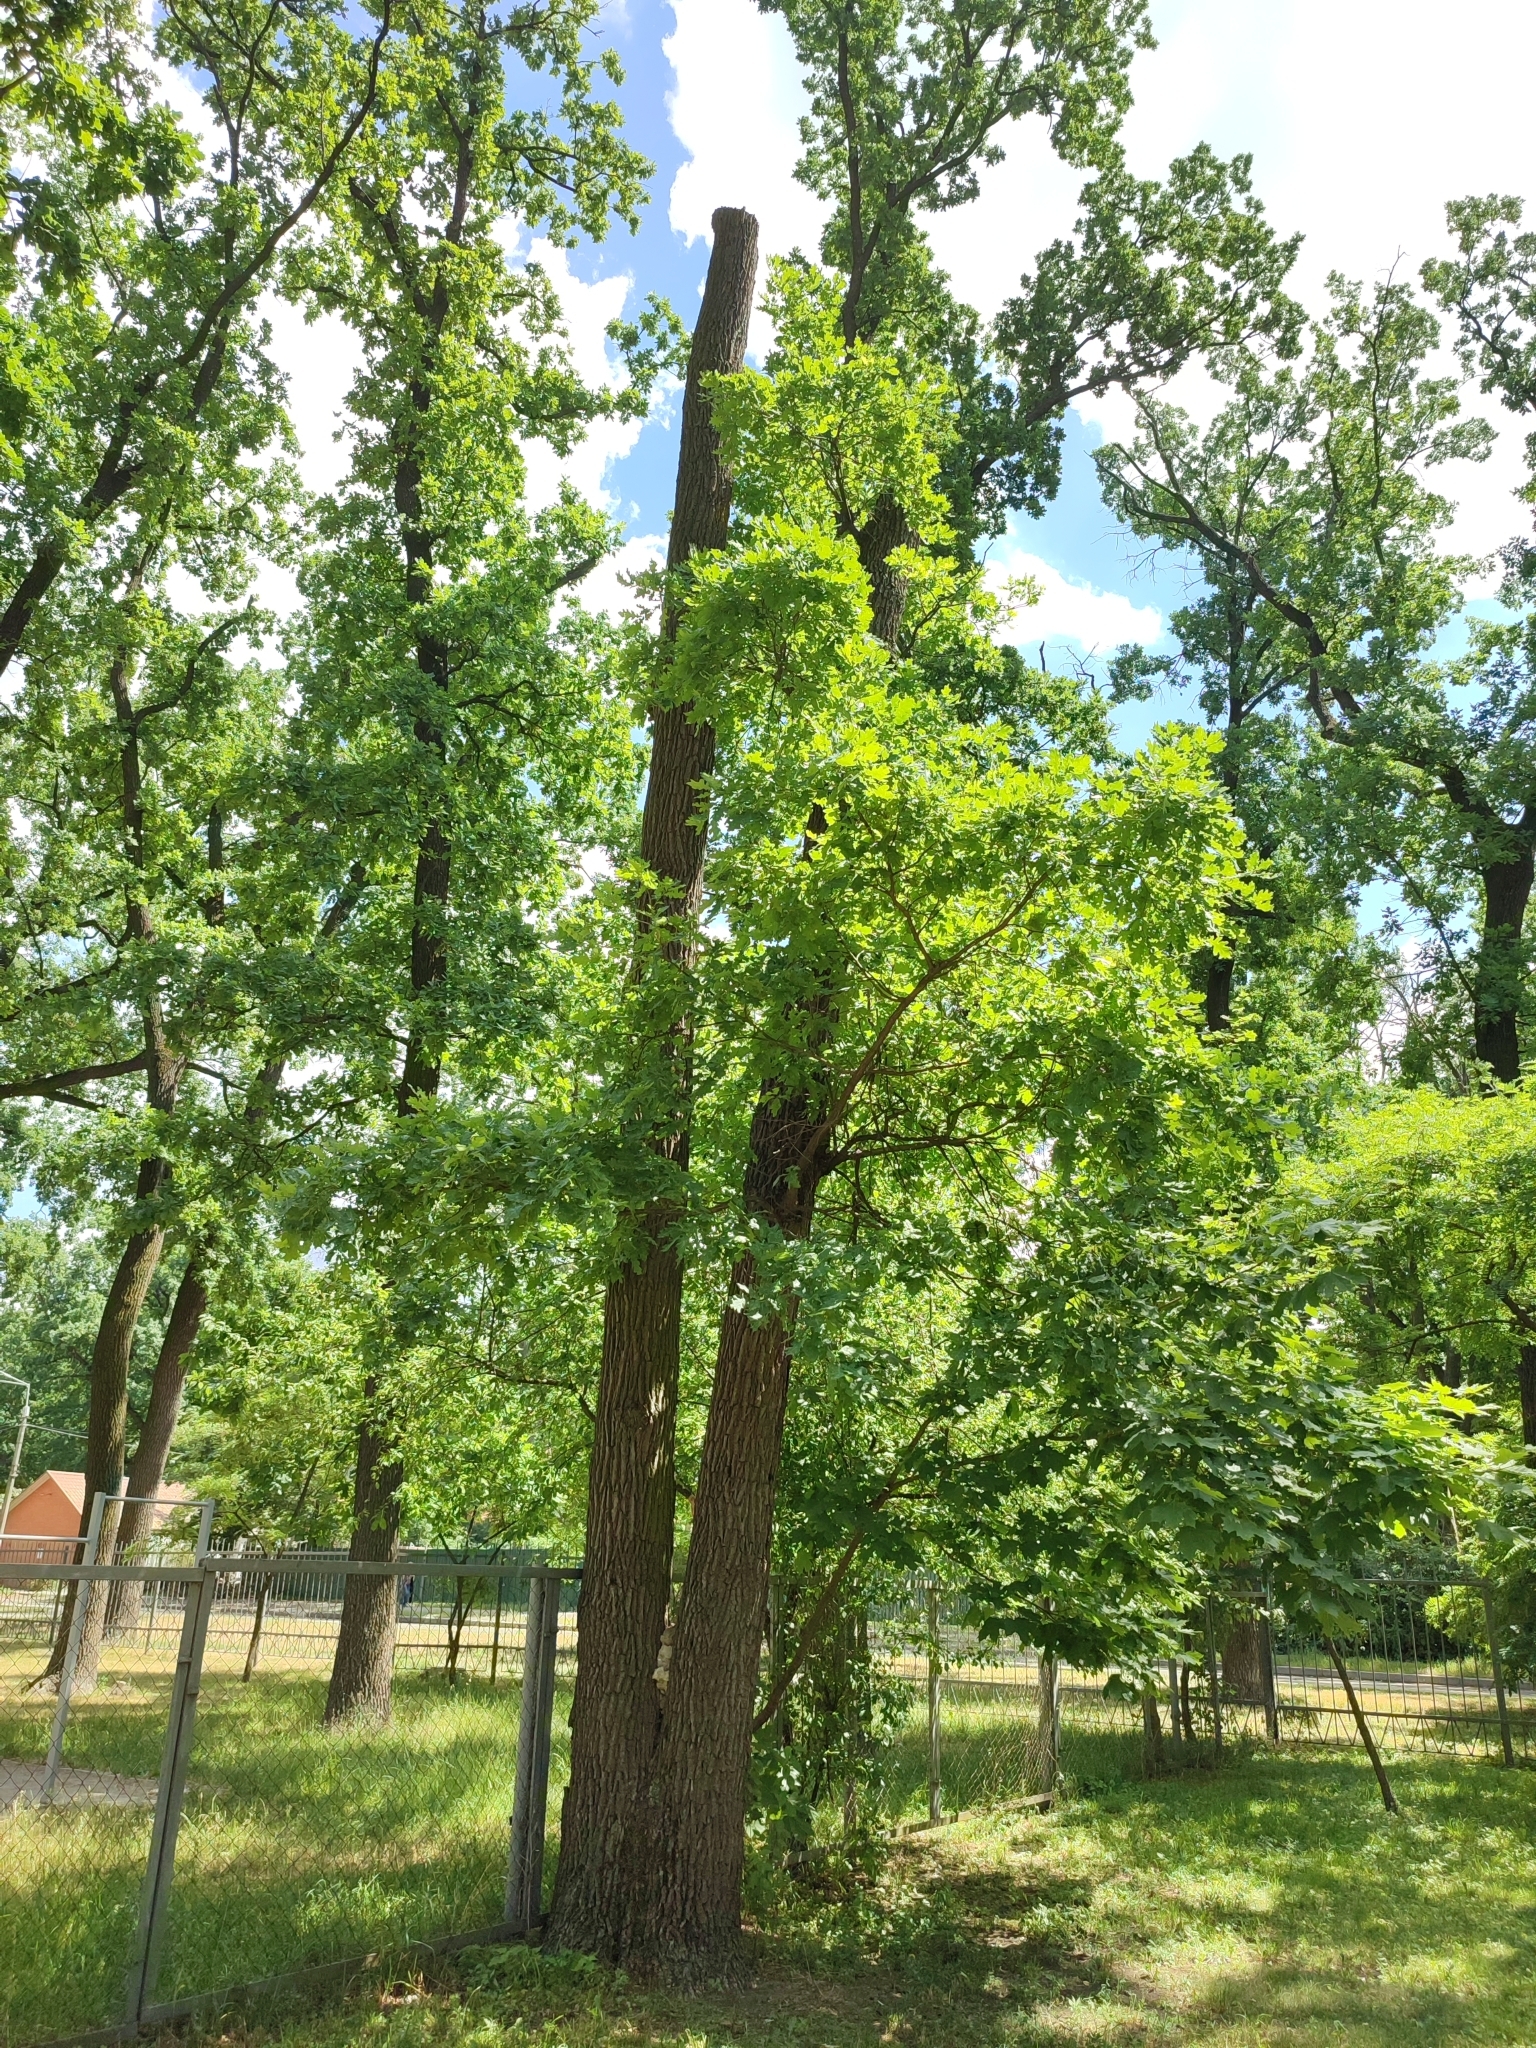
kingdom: Plantae
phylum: Tracheophyta
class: Magnoliopsida
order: Fagales
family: Fagaceae
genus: Quercus
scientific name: Quercus robur
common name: Pedunculate oak
